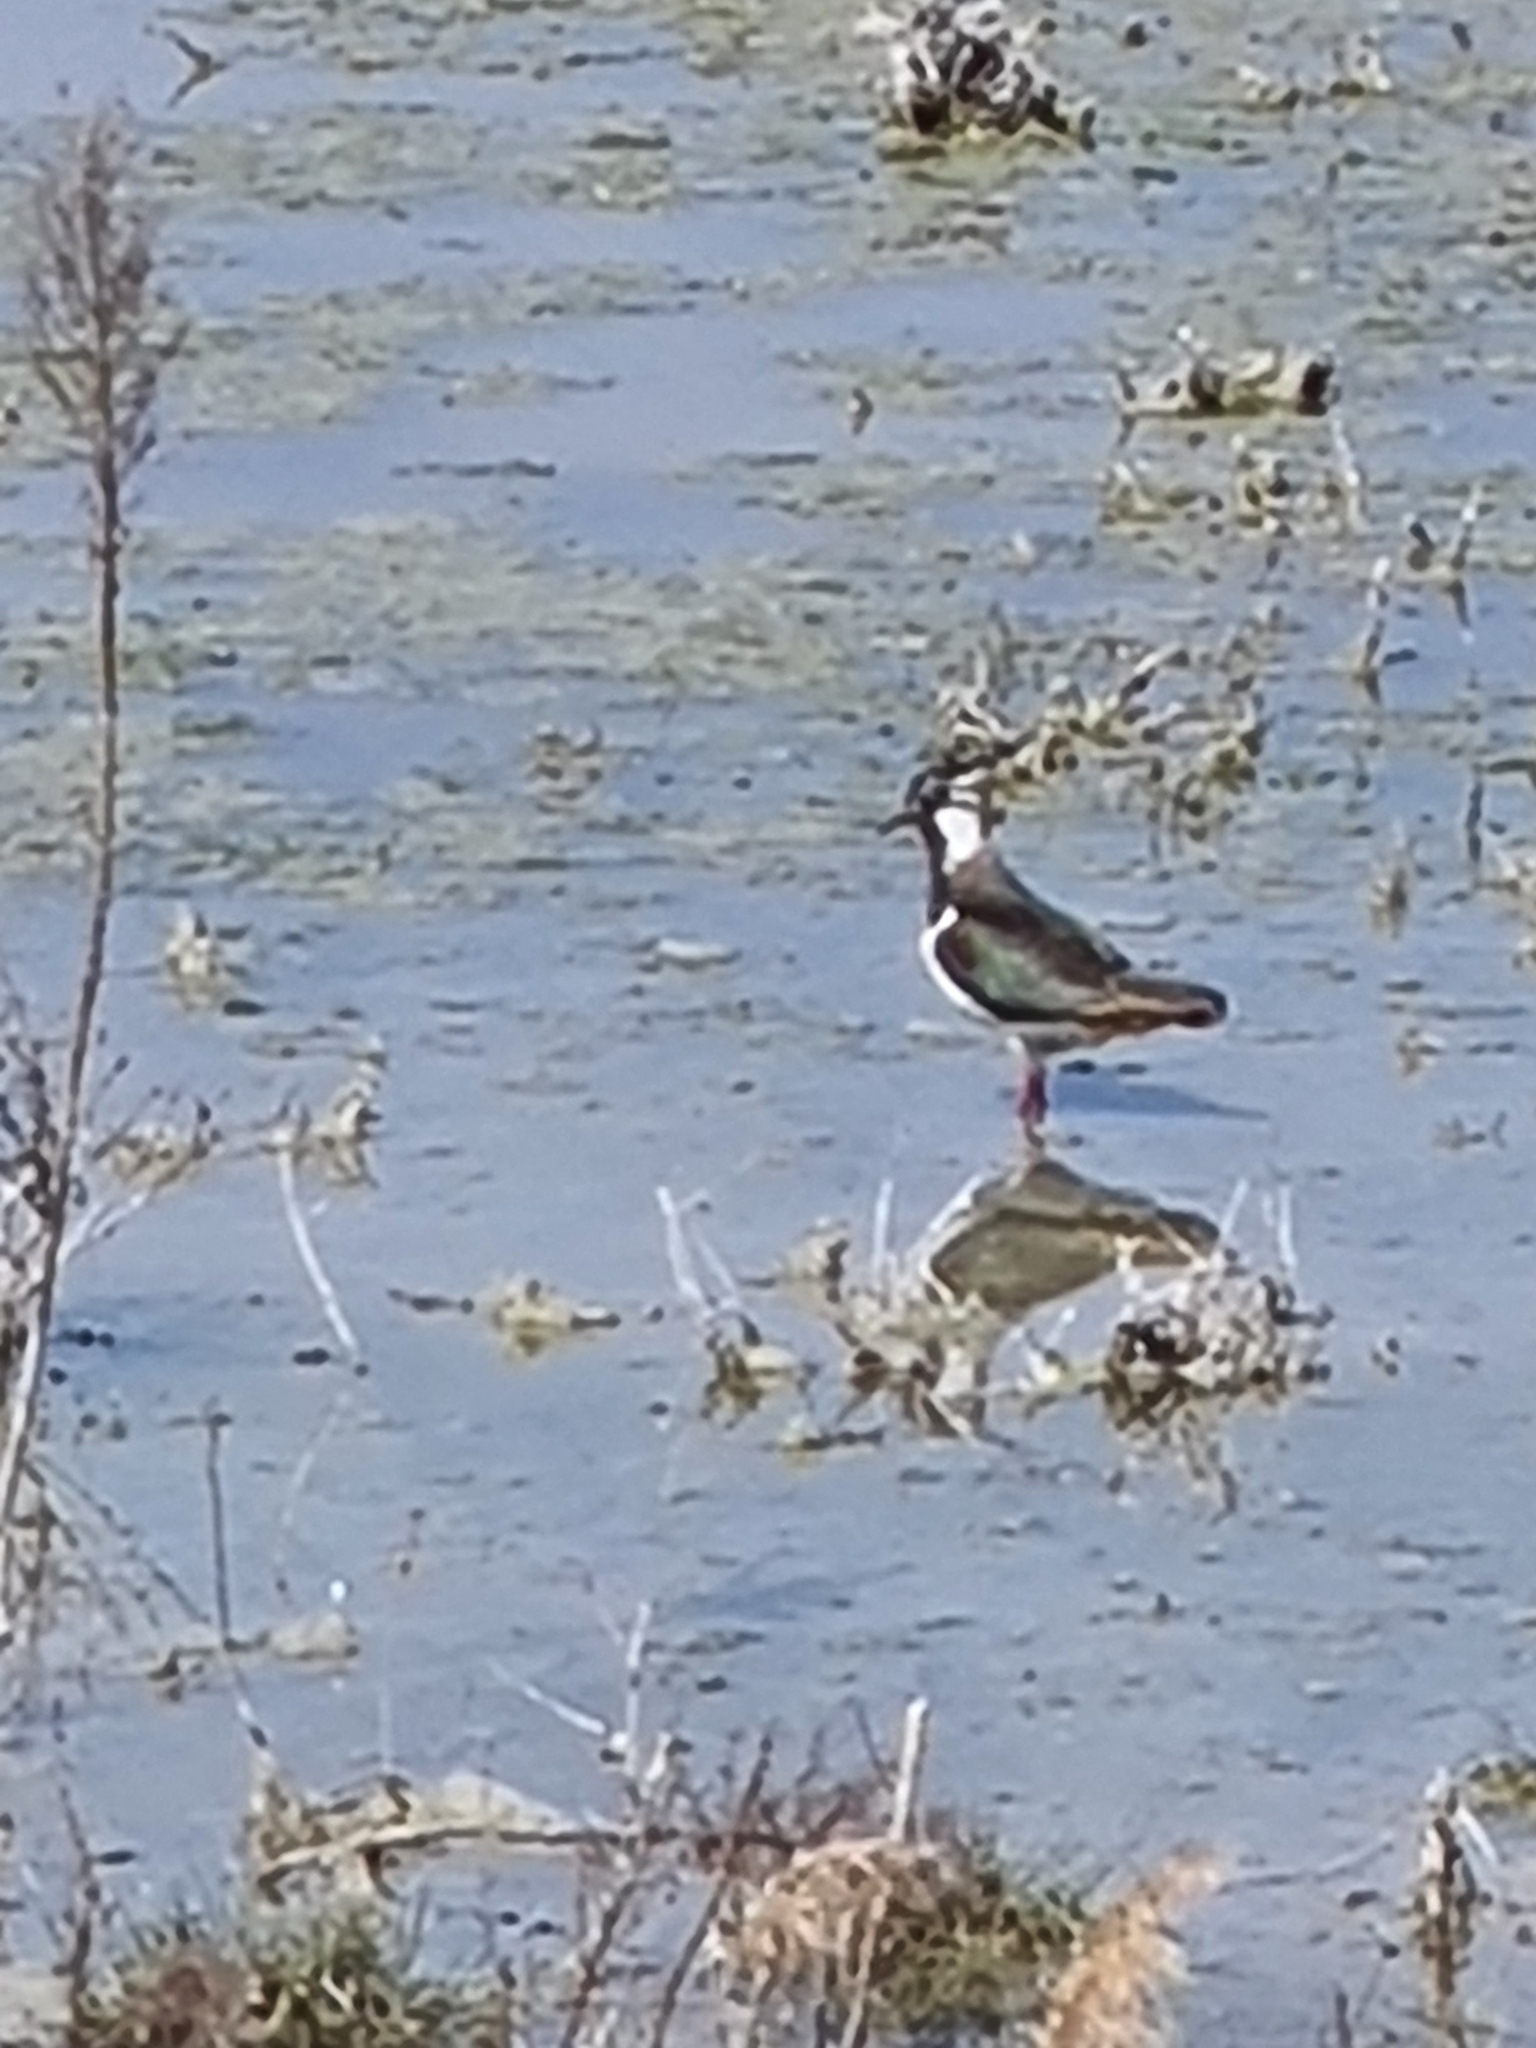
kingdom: Animalia
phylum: Chordata
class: Aves
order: Charadriiformes
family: Charadriidae
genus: Vanellus
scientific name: Vanellus vanellus
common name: Northern lapwing
